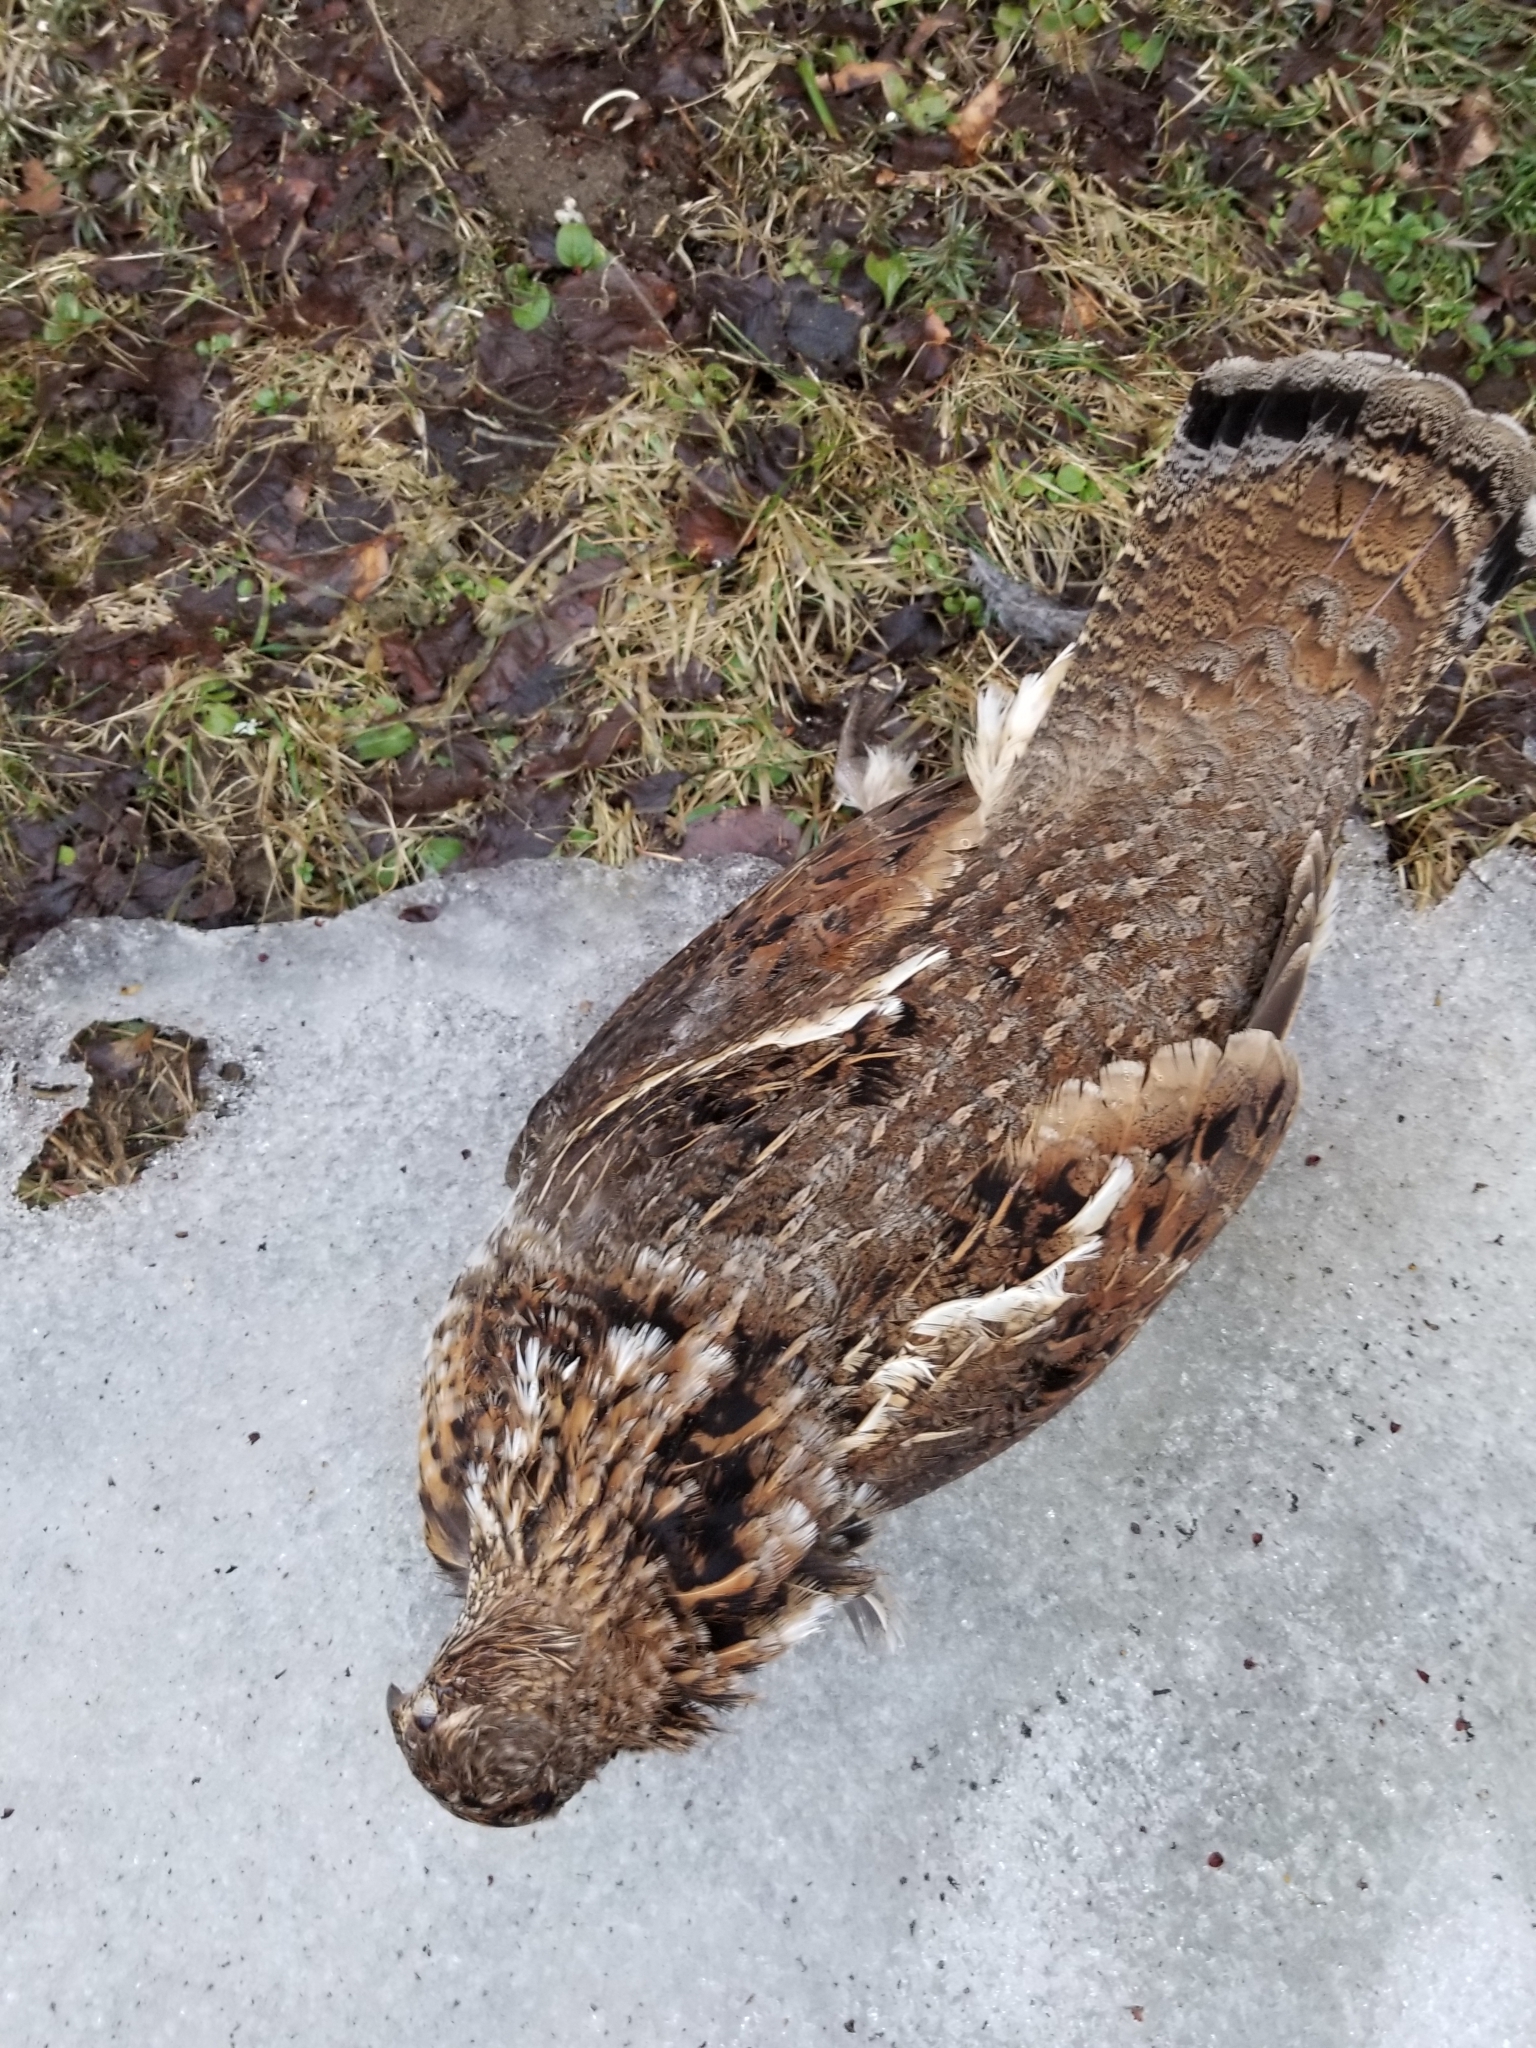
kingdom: Animalia
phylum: Chordata
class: Aves
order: Galliformes
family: Phasianidae
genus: Bonasa
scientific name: Bonasa umbellus
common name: Ruffed grouse
